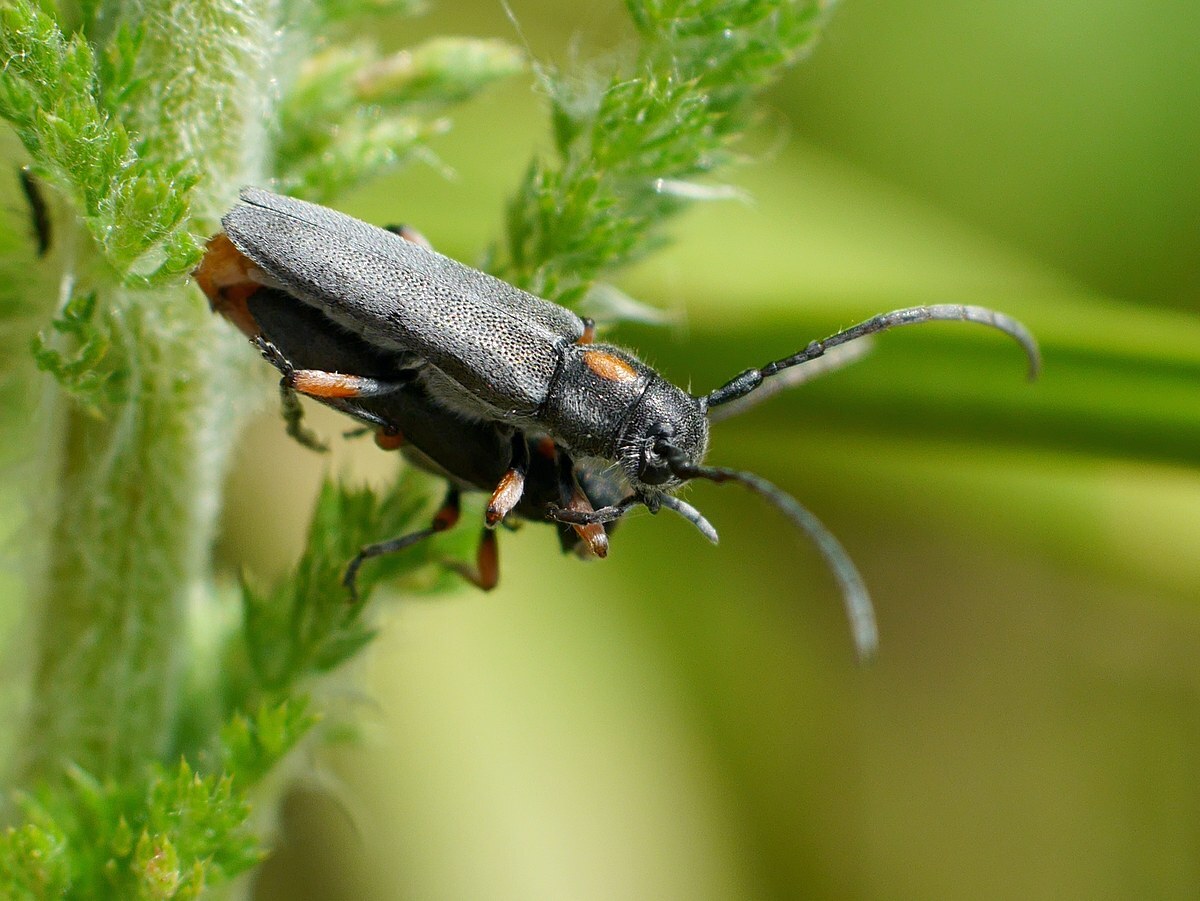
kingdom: Animalia
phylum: Arthropoda
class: Insecta
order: Coleoptera
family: Cerambycidae
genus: Phytoecia
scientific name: Phytoecia pustulata
